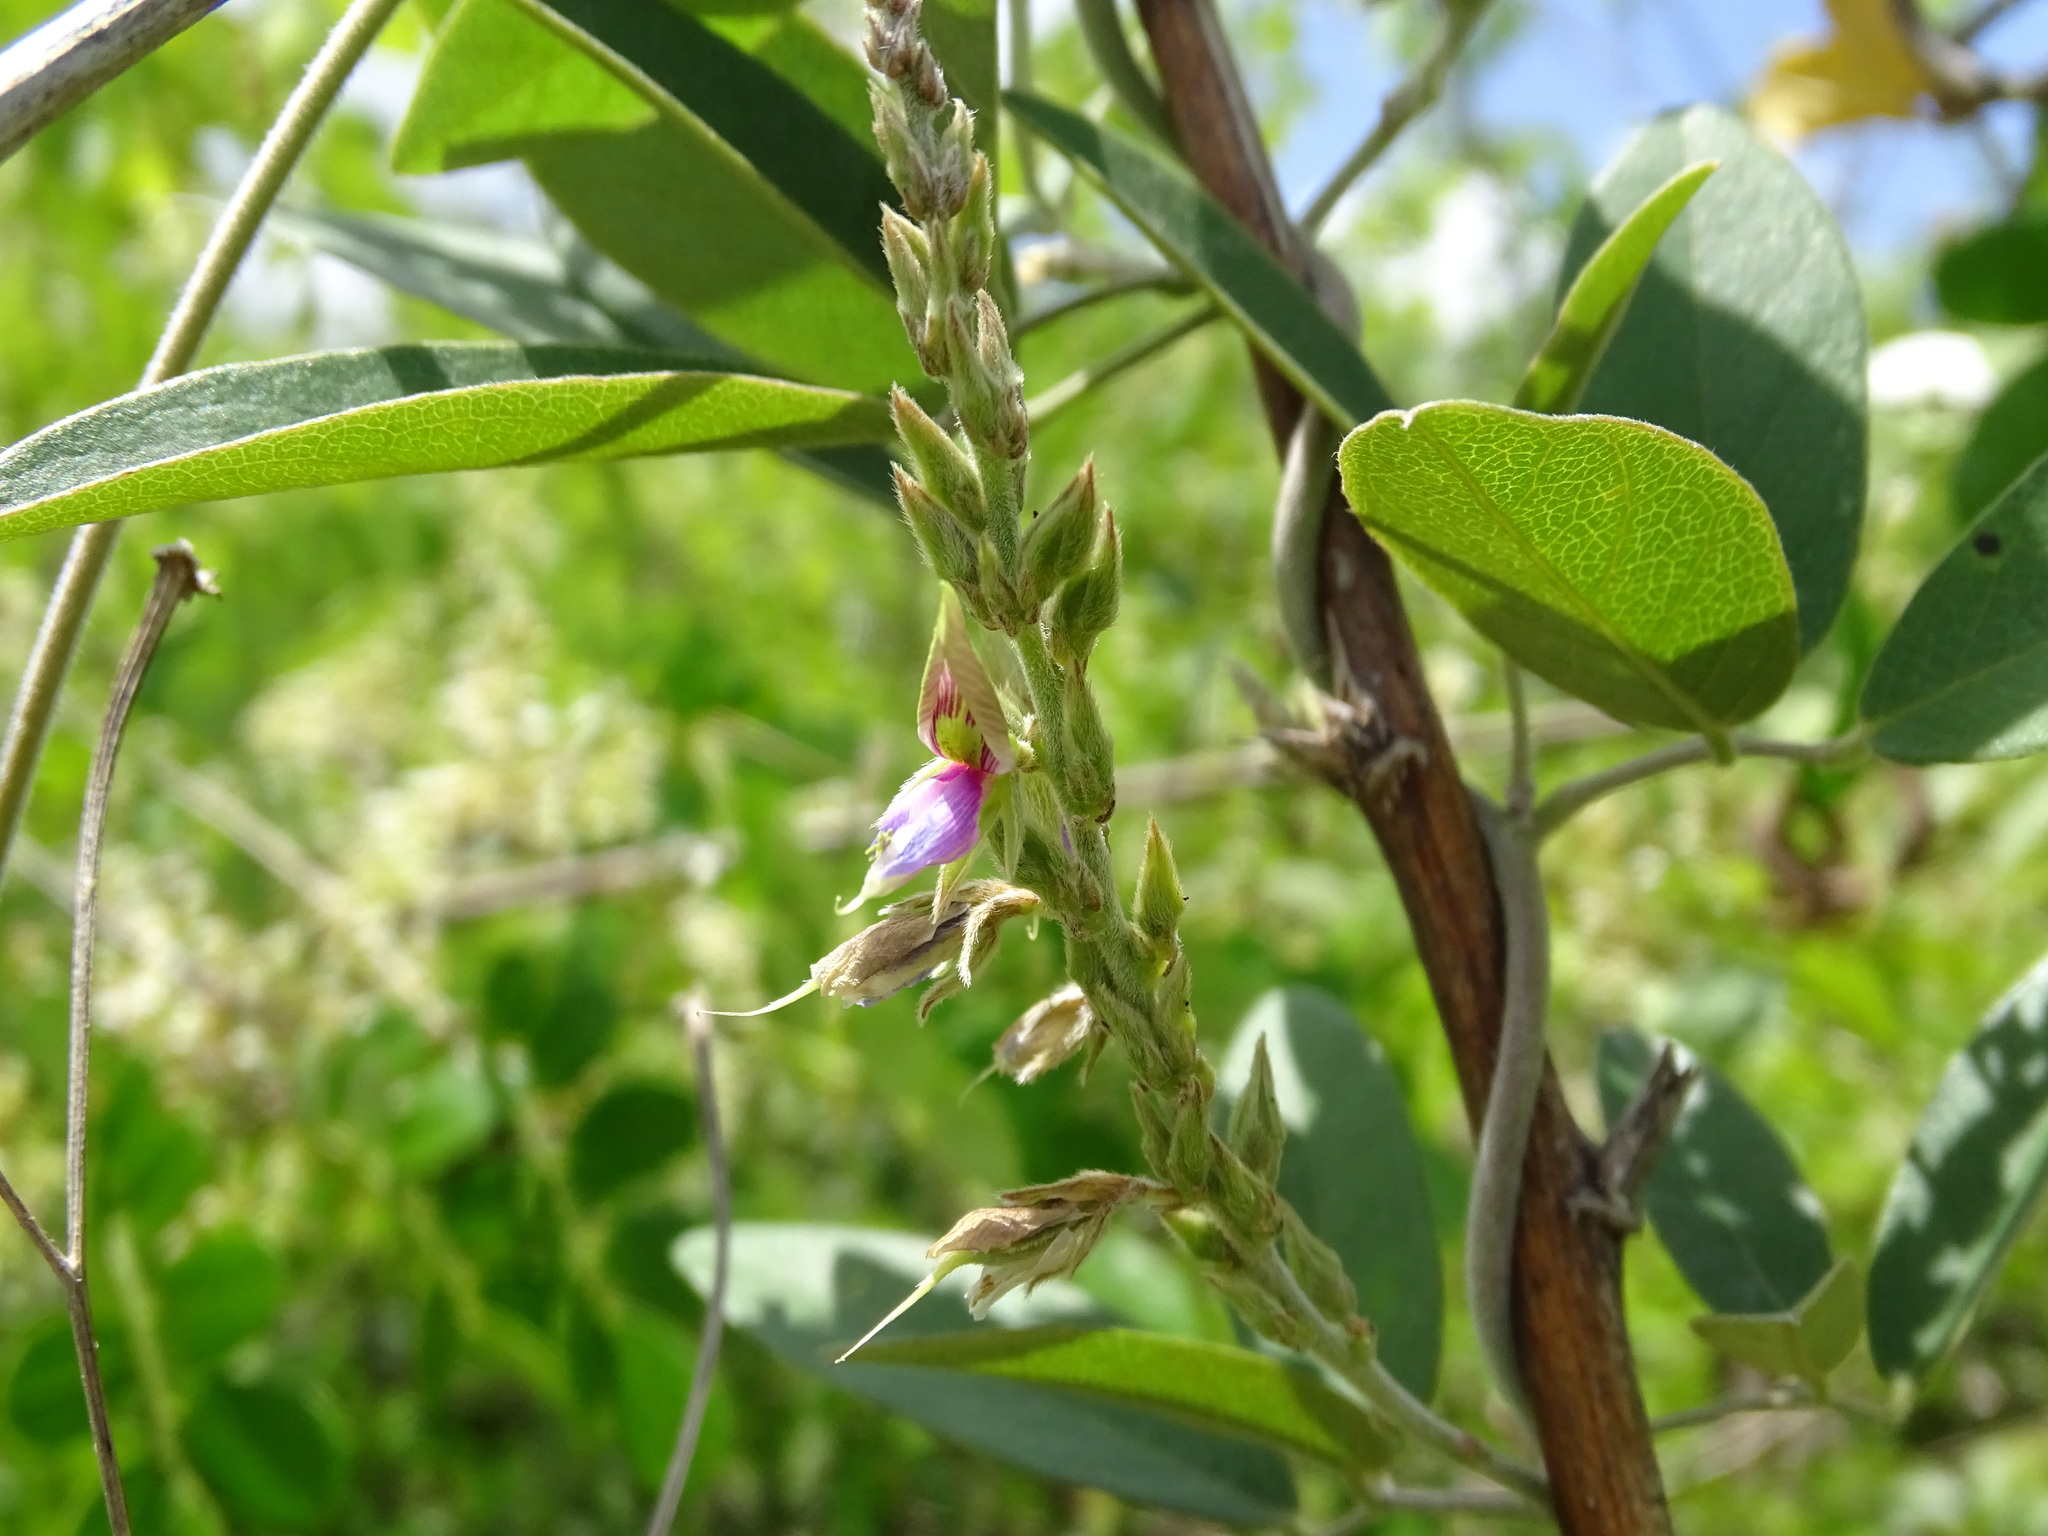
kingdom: Plantae
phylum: Tracheophyta
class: Magnoliopsida
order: Fabales
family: Fabaceae
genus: Galactia
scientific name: Galactia striata
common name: Florida hammock milkpea
